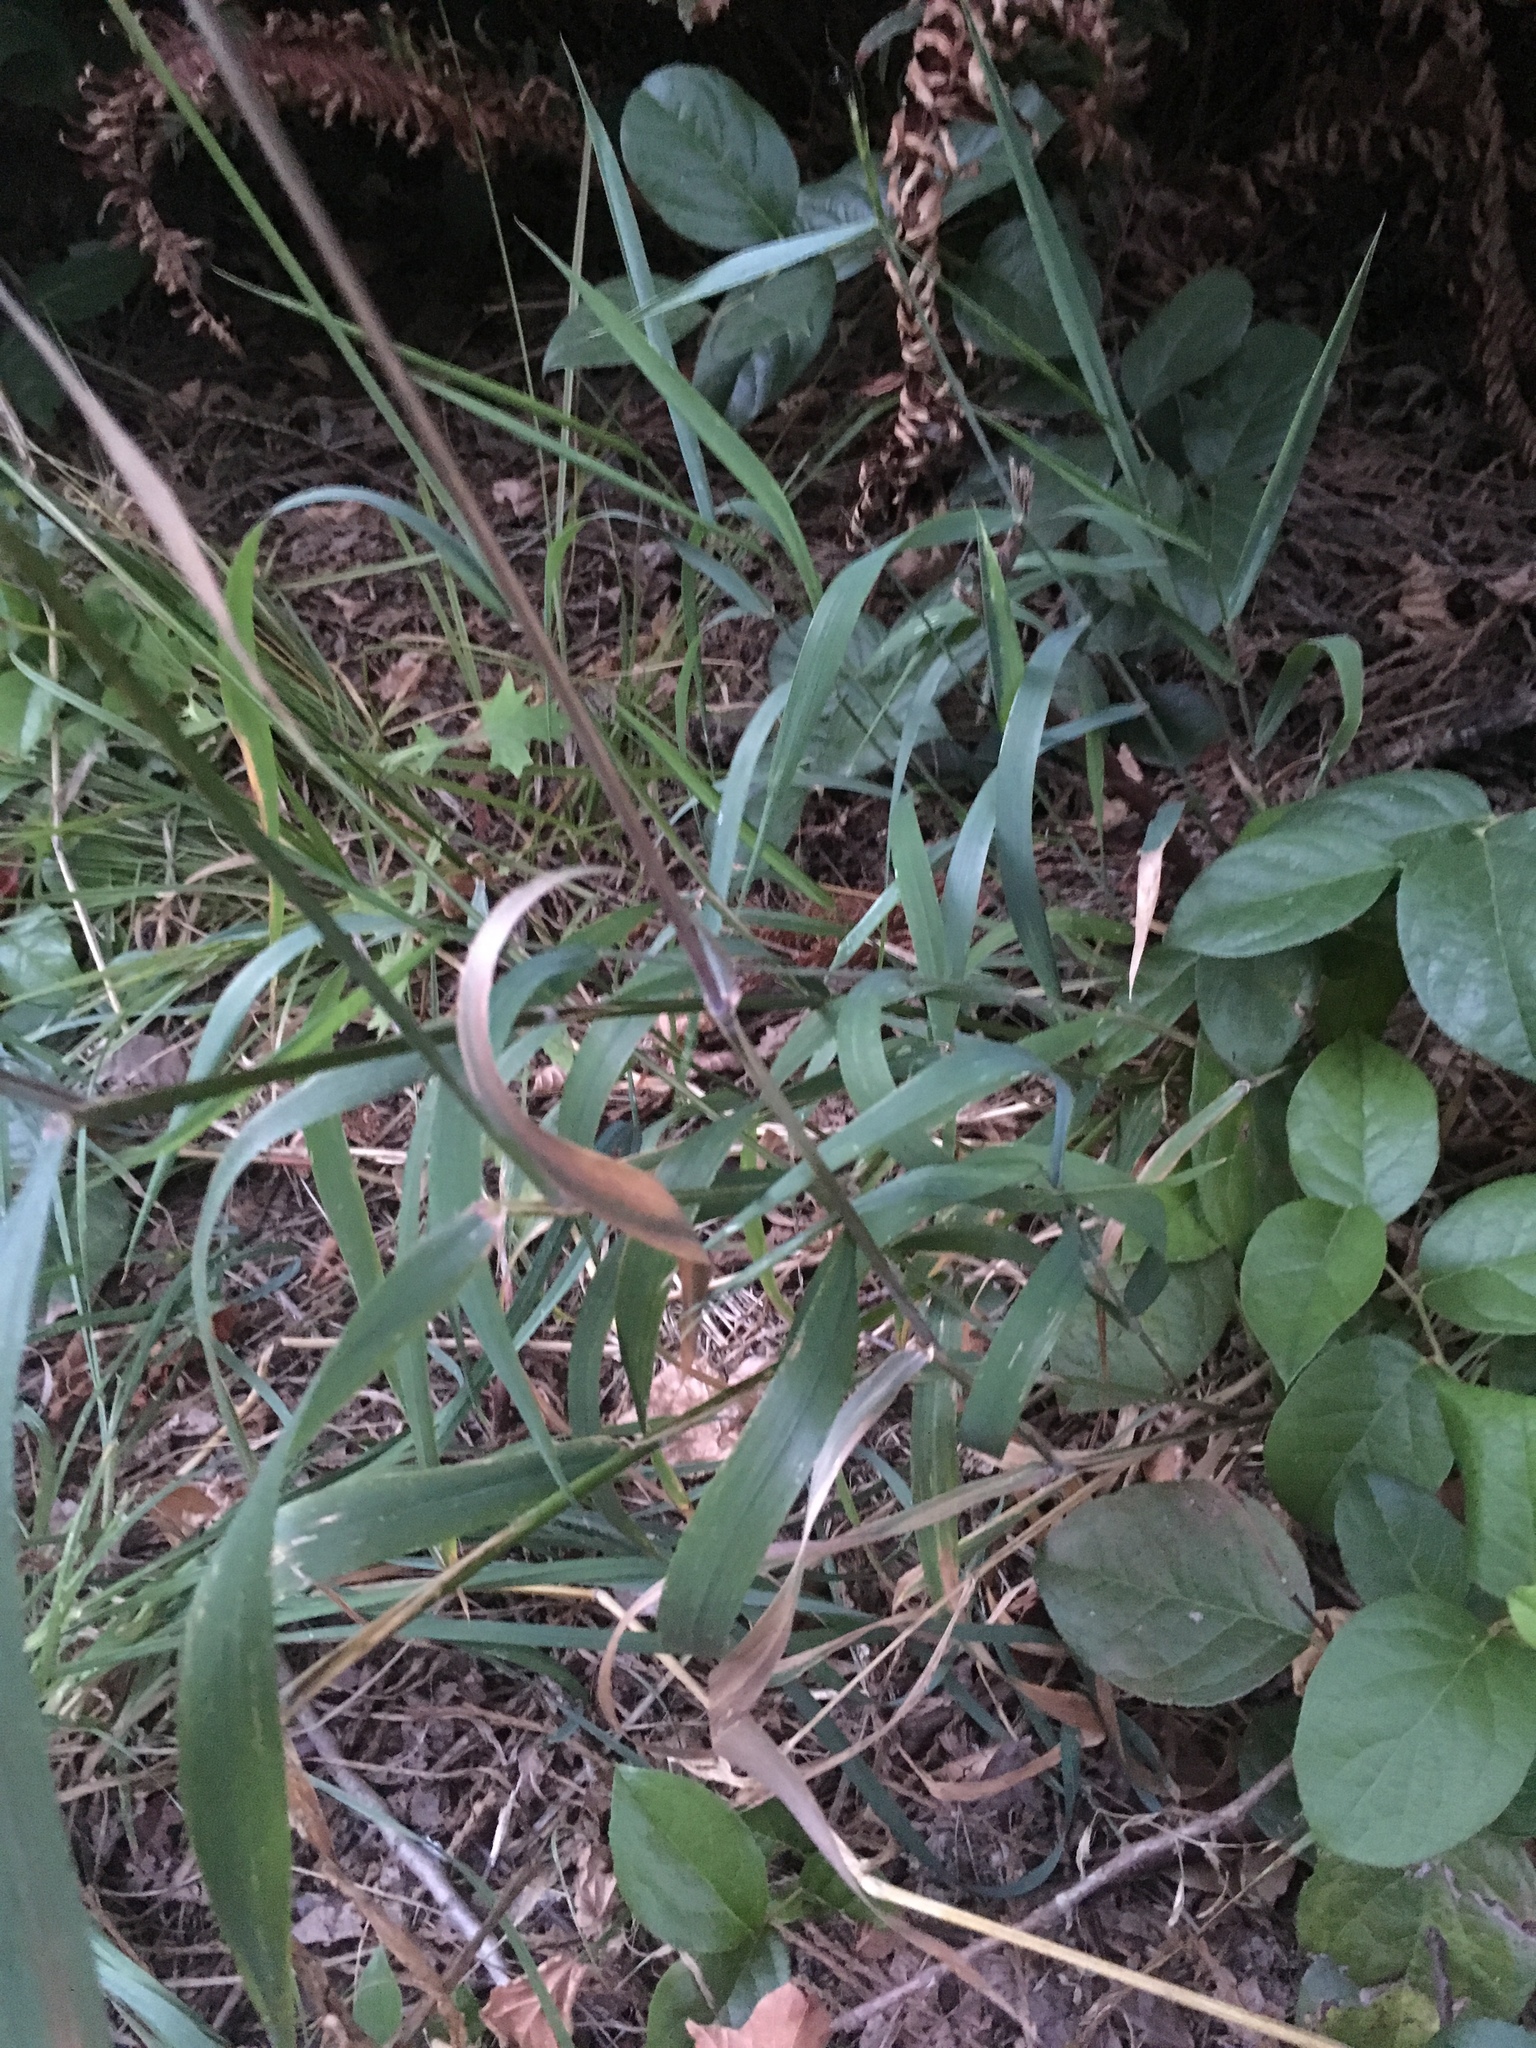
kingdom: Plantae
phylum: Tracheophyta
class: Liliopsida
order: Poales
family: Poaceae
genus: Elymus
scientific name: Elymus glaucus
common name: Blue wild rye
